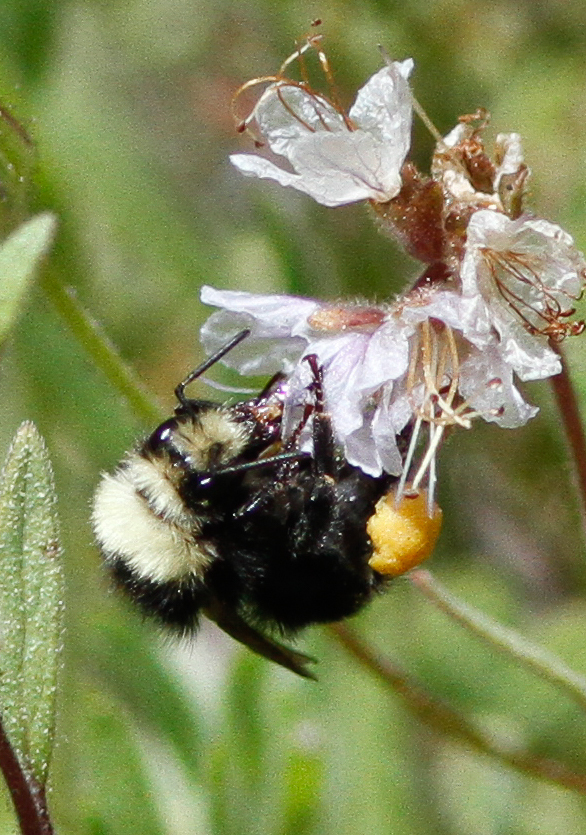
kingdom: Animalia
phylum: Arthropoda
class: Insecta
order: Hymenoptera
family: Apidae
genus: Bombus
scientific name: Bombus vandykei
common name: Van dyke bumble bee
